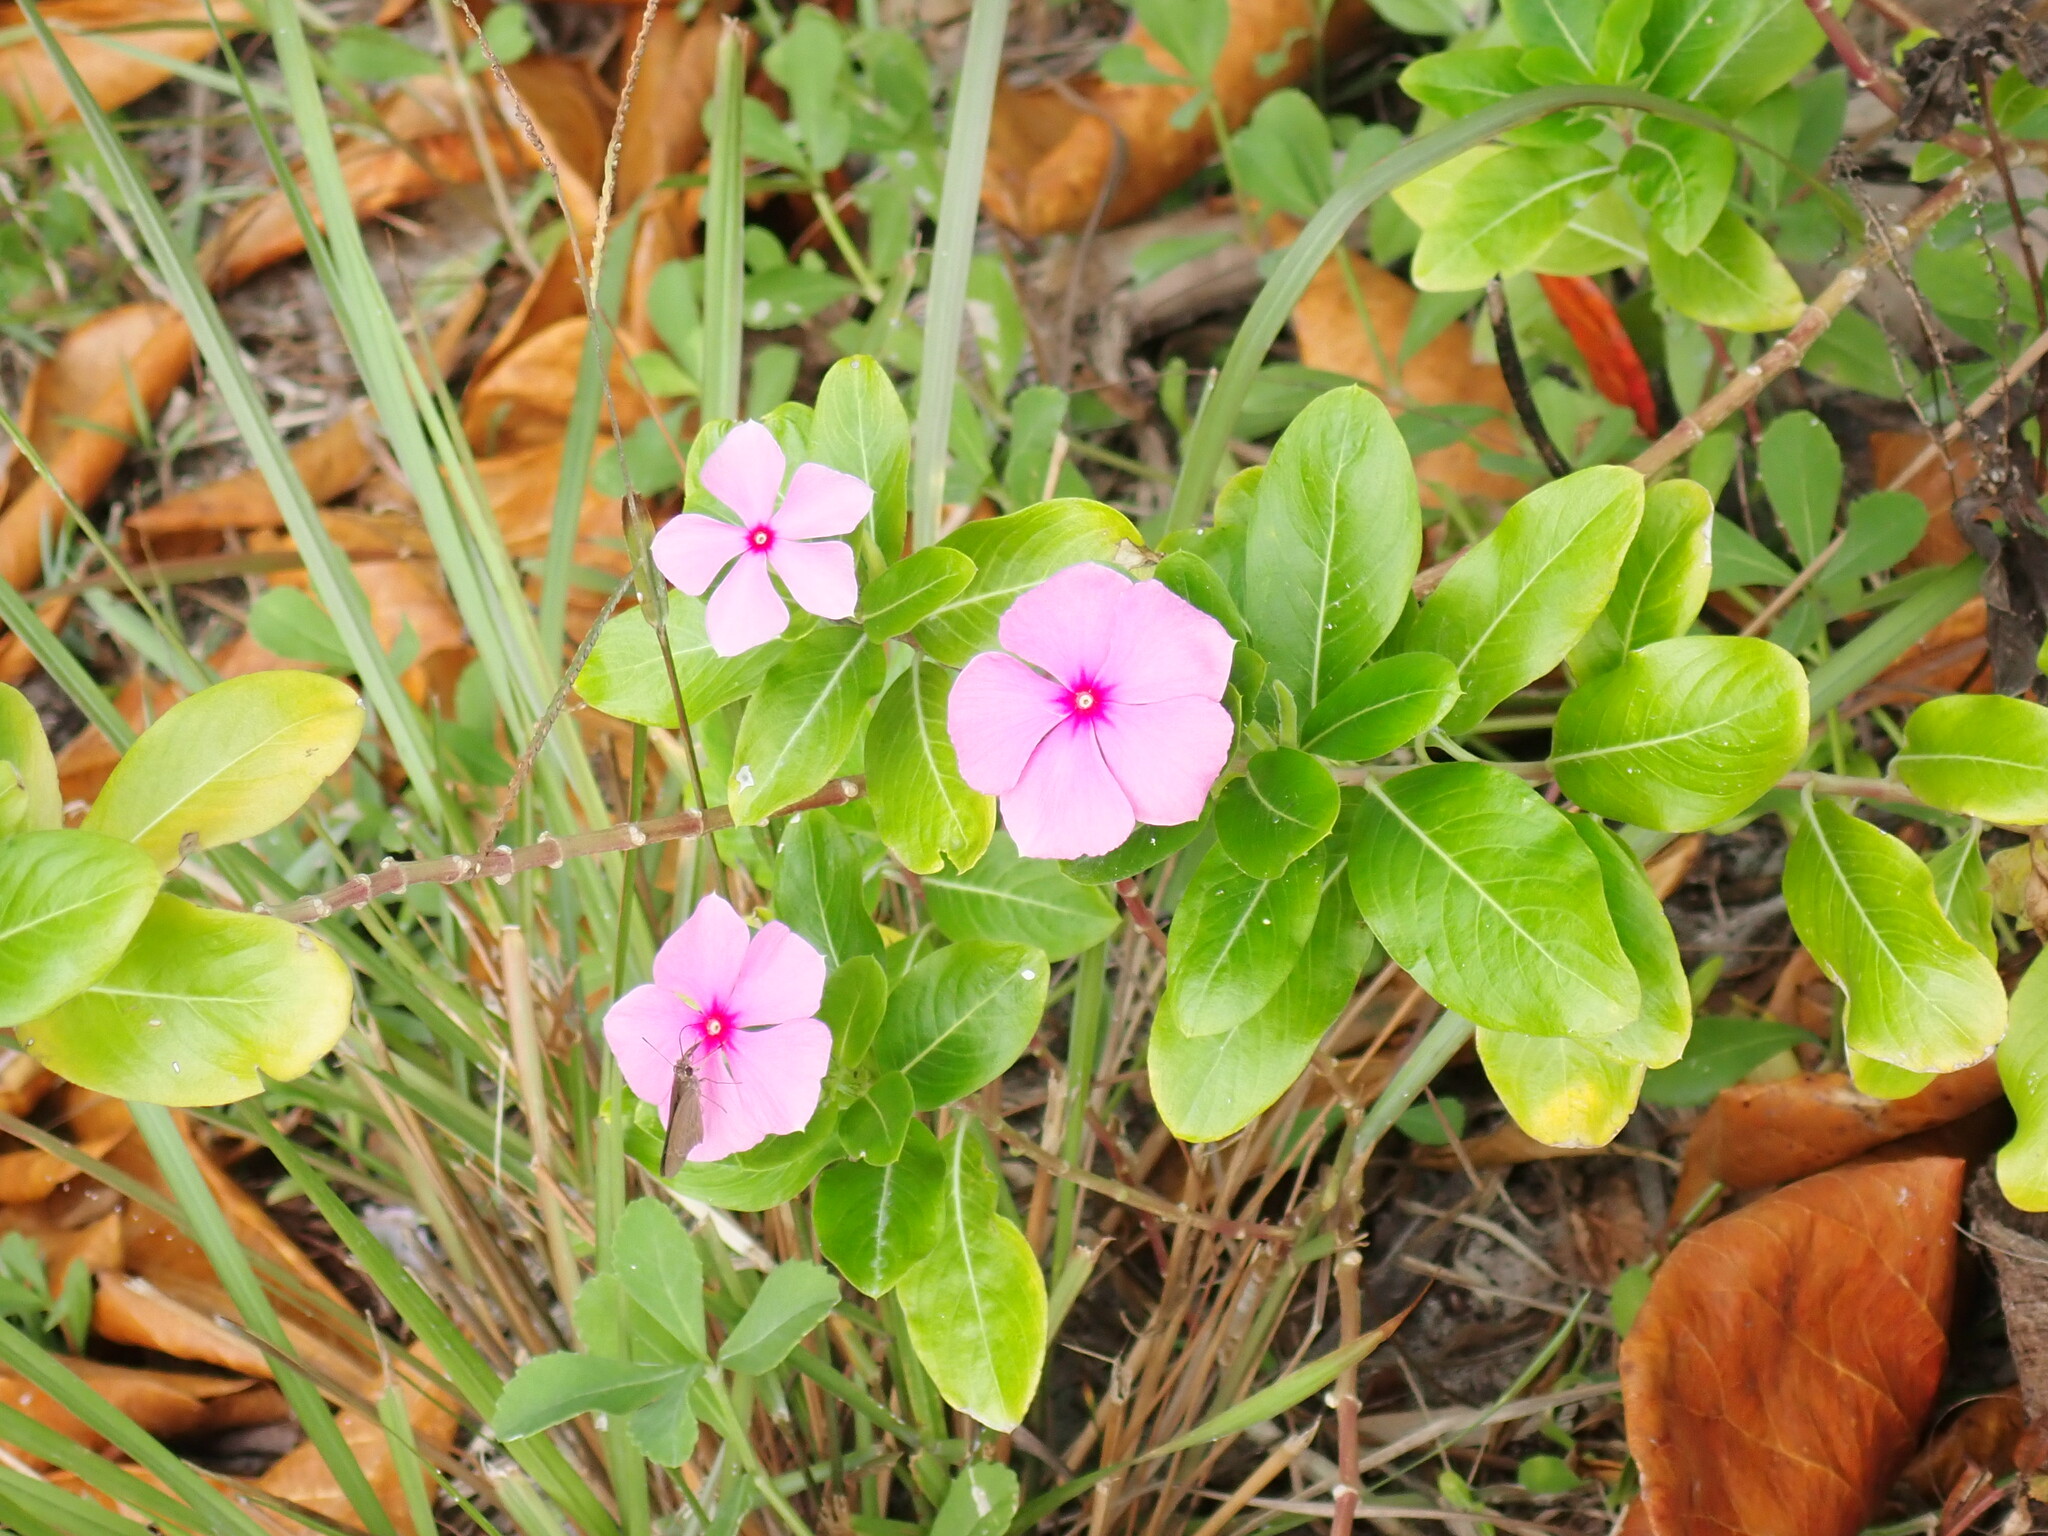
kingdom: Plantae
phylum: Tracheophyta
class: Magnoliopsida
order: Gentianales
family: Apocynaceae
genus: Catharanthus
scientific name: Catharanthus roseus
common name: Madagascar periwinkle
